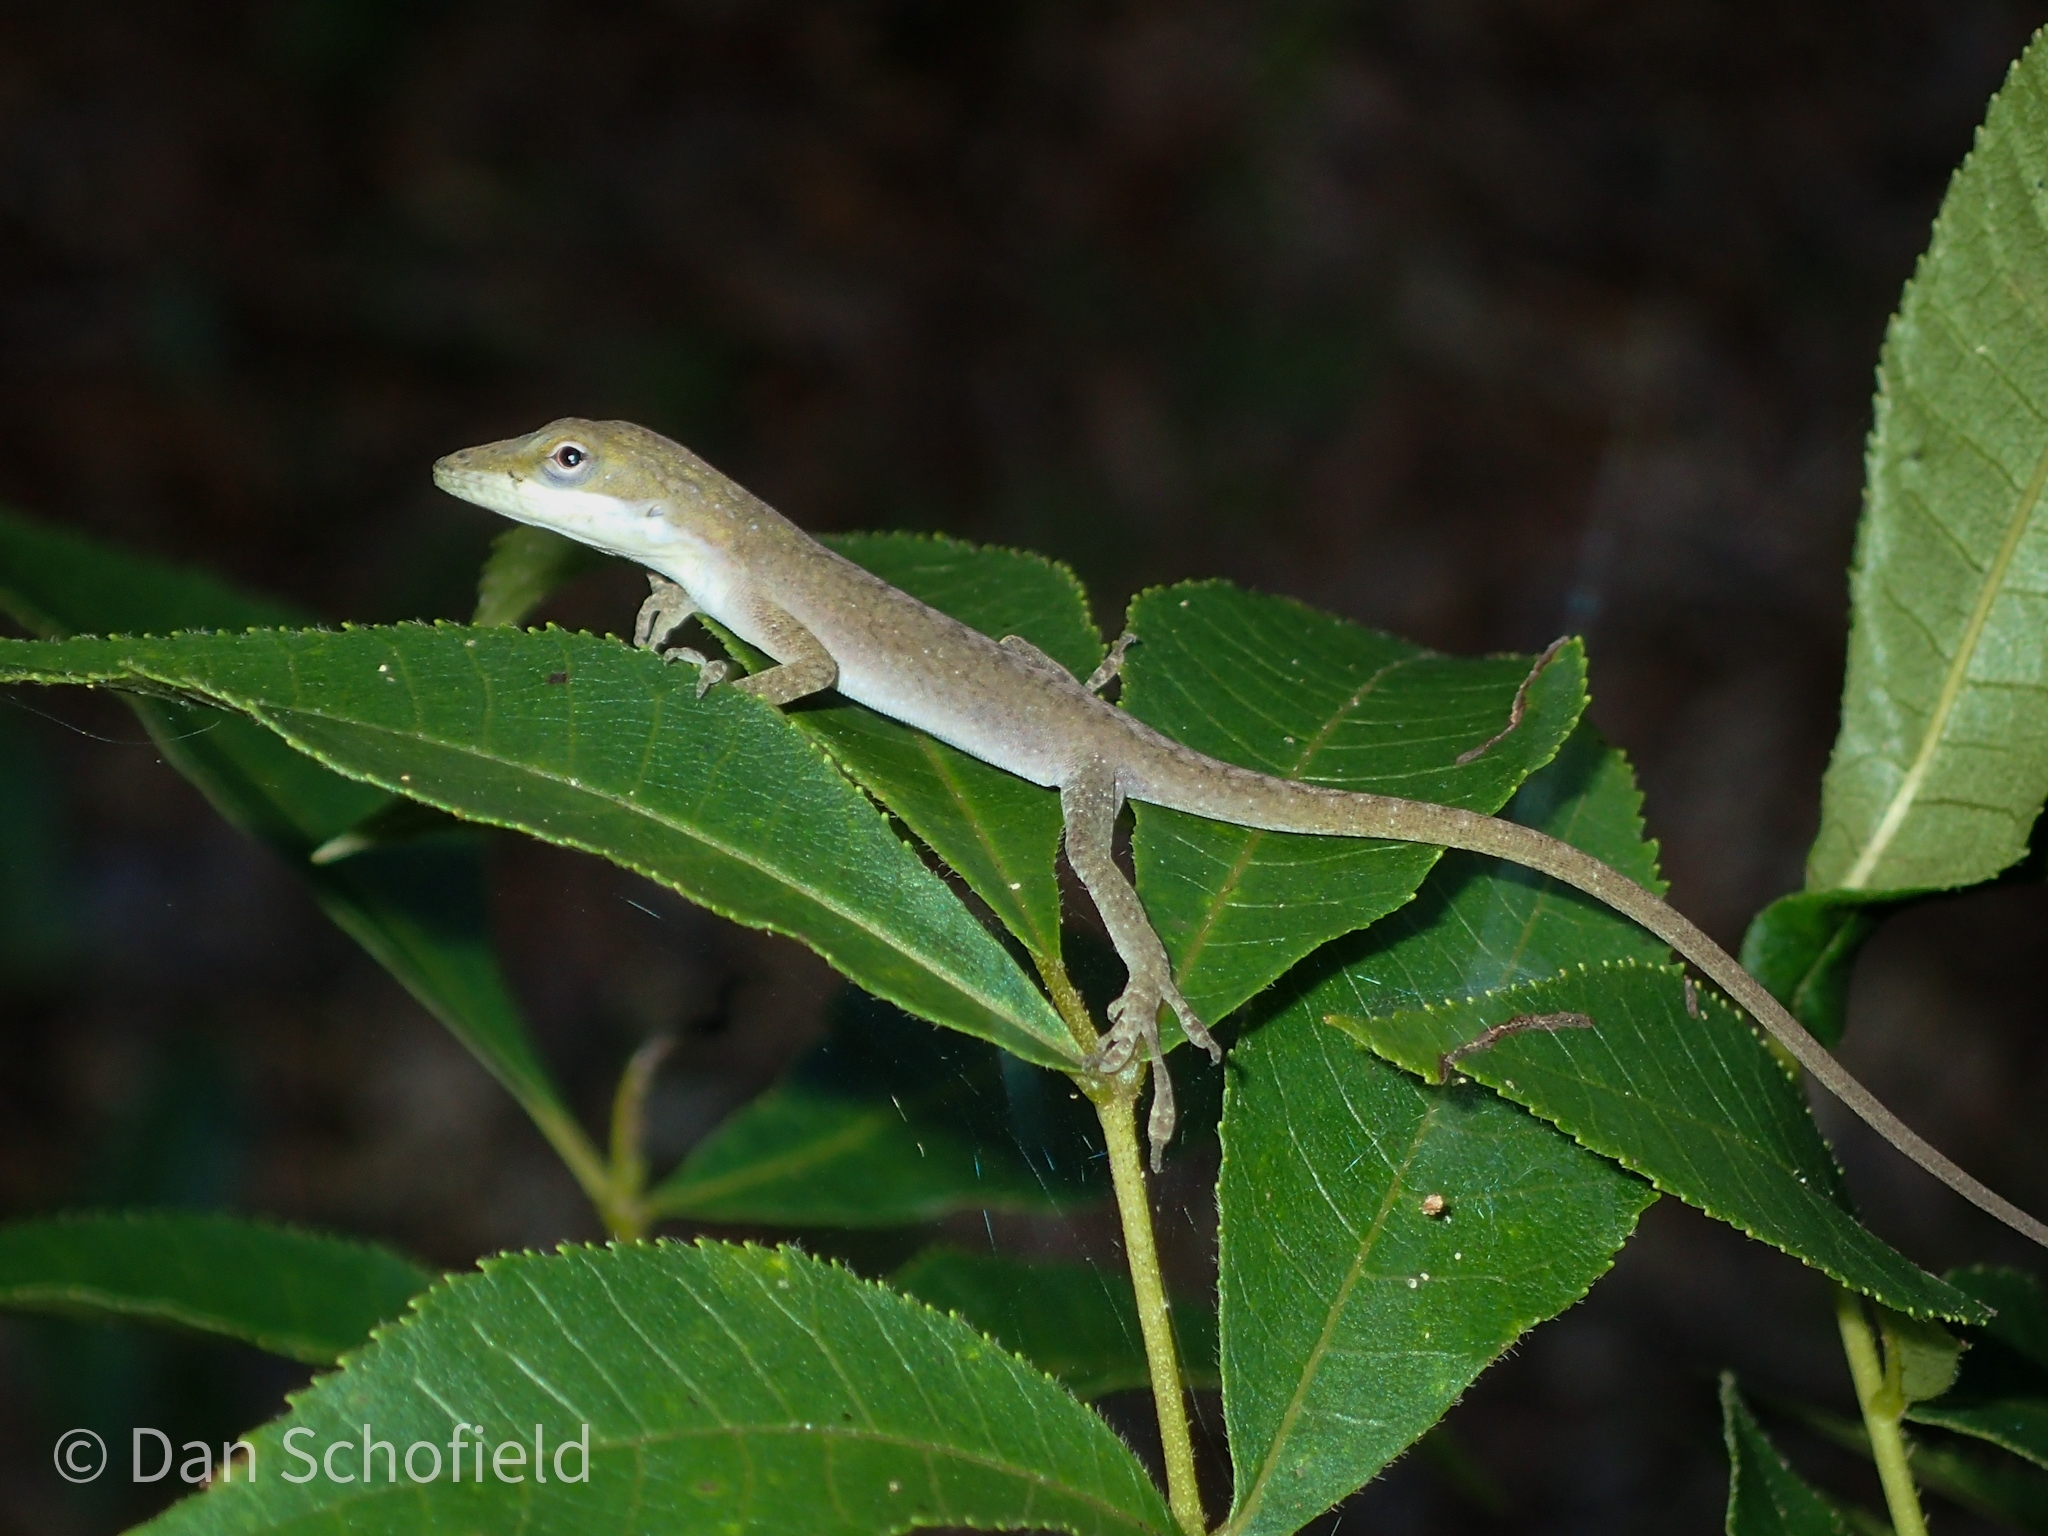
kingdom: Animalia
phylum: Chordata
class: Squamata
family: Dactyloidae
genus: Anolis
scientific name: Anolis carolinensis
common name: Green anole
